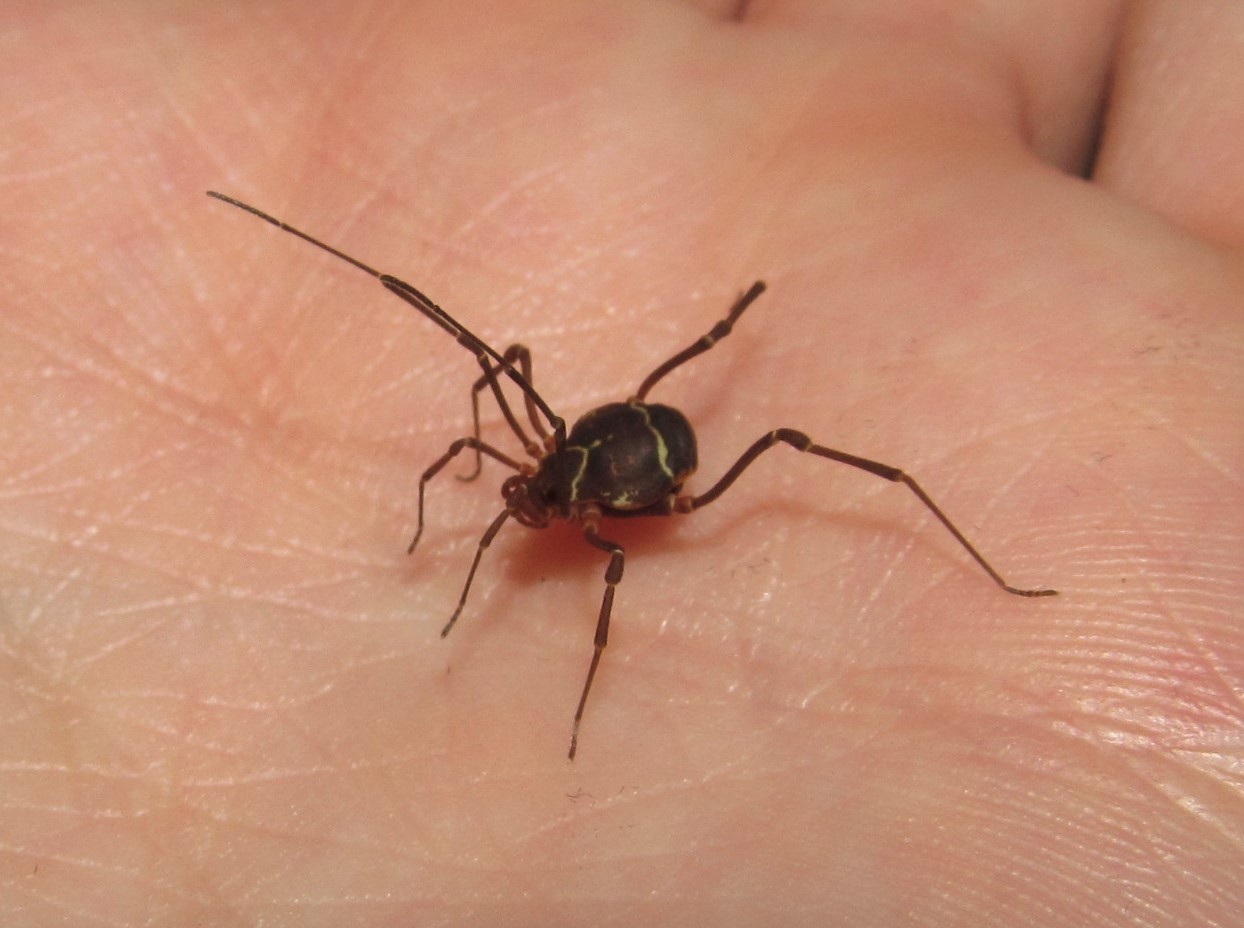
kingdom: Animalia
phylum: Arthropoda
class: Arachnida
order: Opiliones
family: Cosmetidae
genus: Libitioides
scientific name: Libitioides sayi
